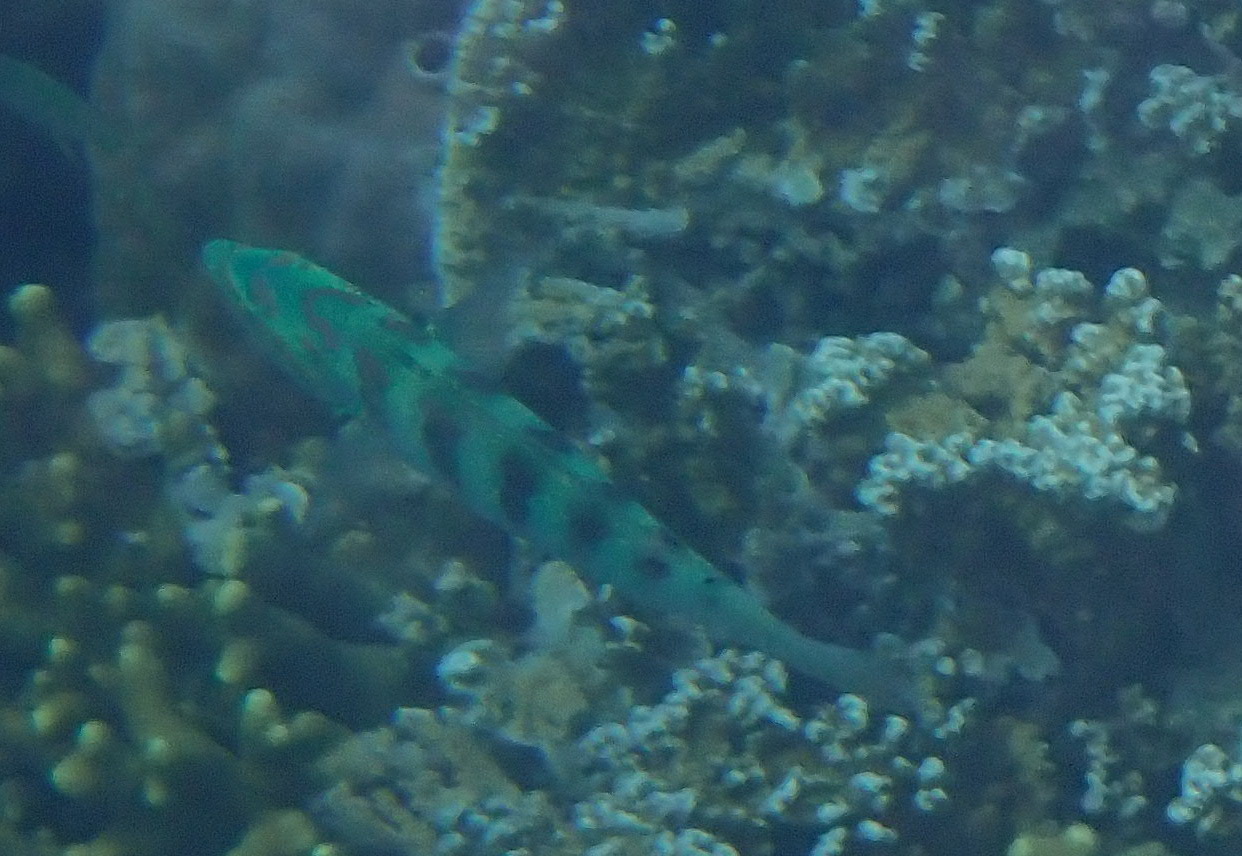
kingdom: Animalia
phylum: Chordata
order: Perciformes
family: Labridae
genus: Thalassoma
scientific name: Thalassoma hardwicke
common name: Sixbar wrasse
